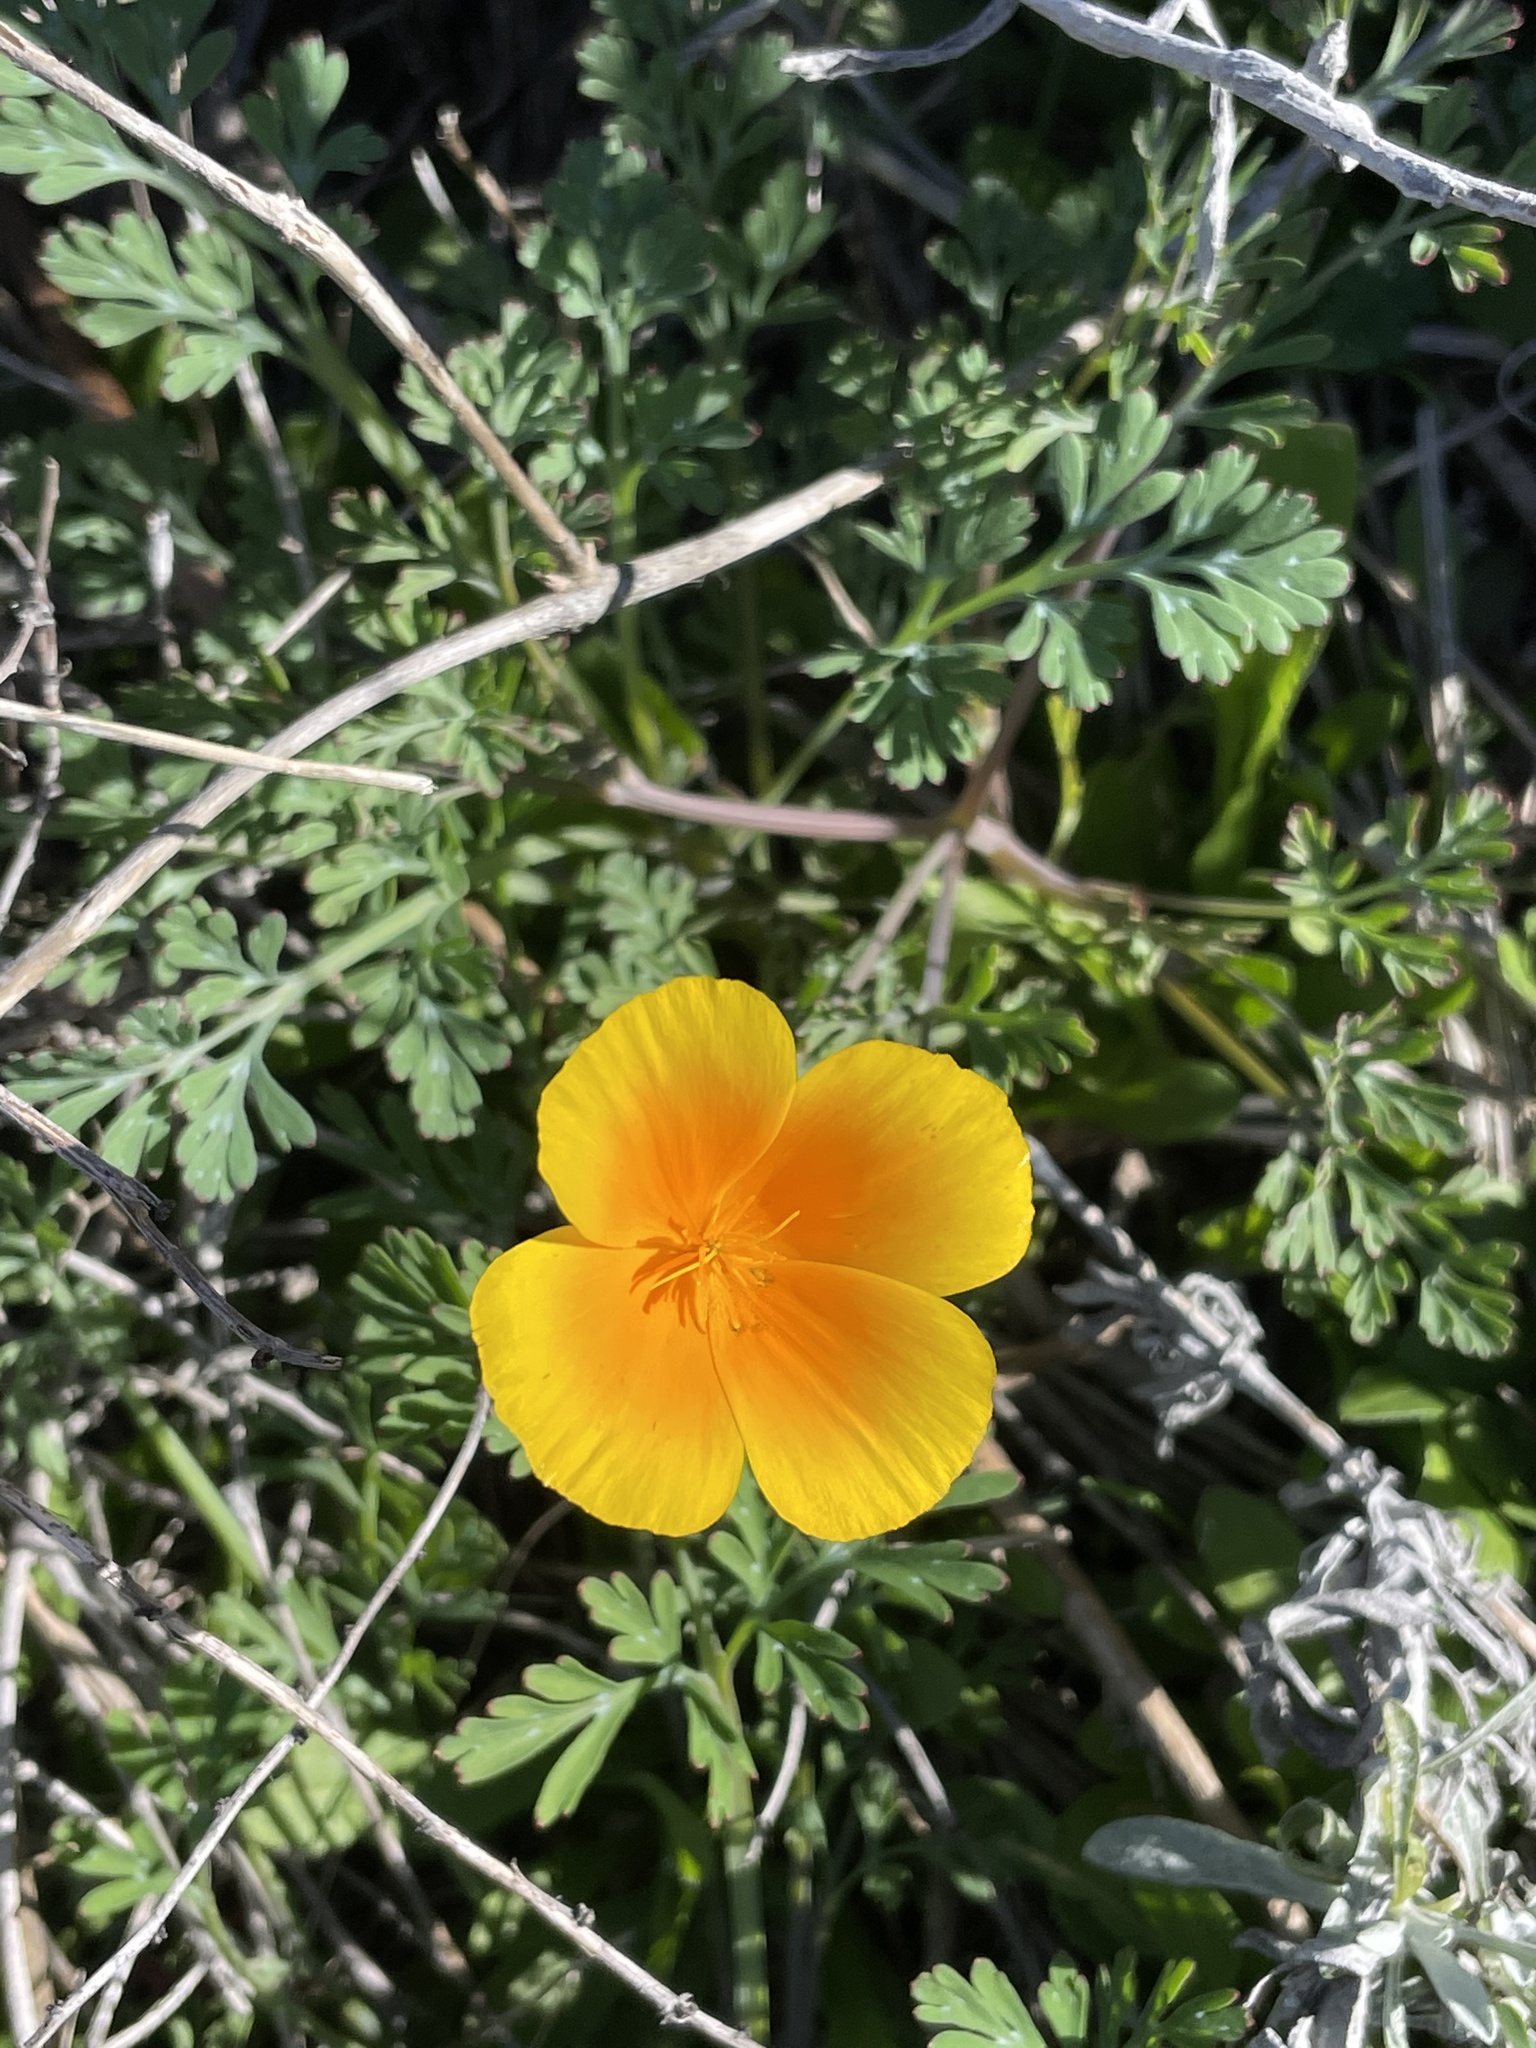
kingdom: Plantae
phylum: Tracheophyta
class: Magnoliopsida
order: Ranunculales
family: Papaveraceae
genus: Eschscholzia
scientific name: Eschscholzia californica
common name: California poppy
